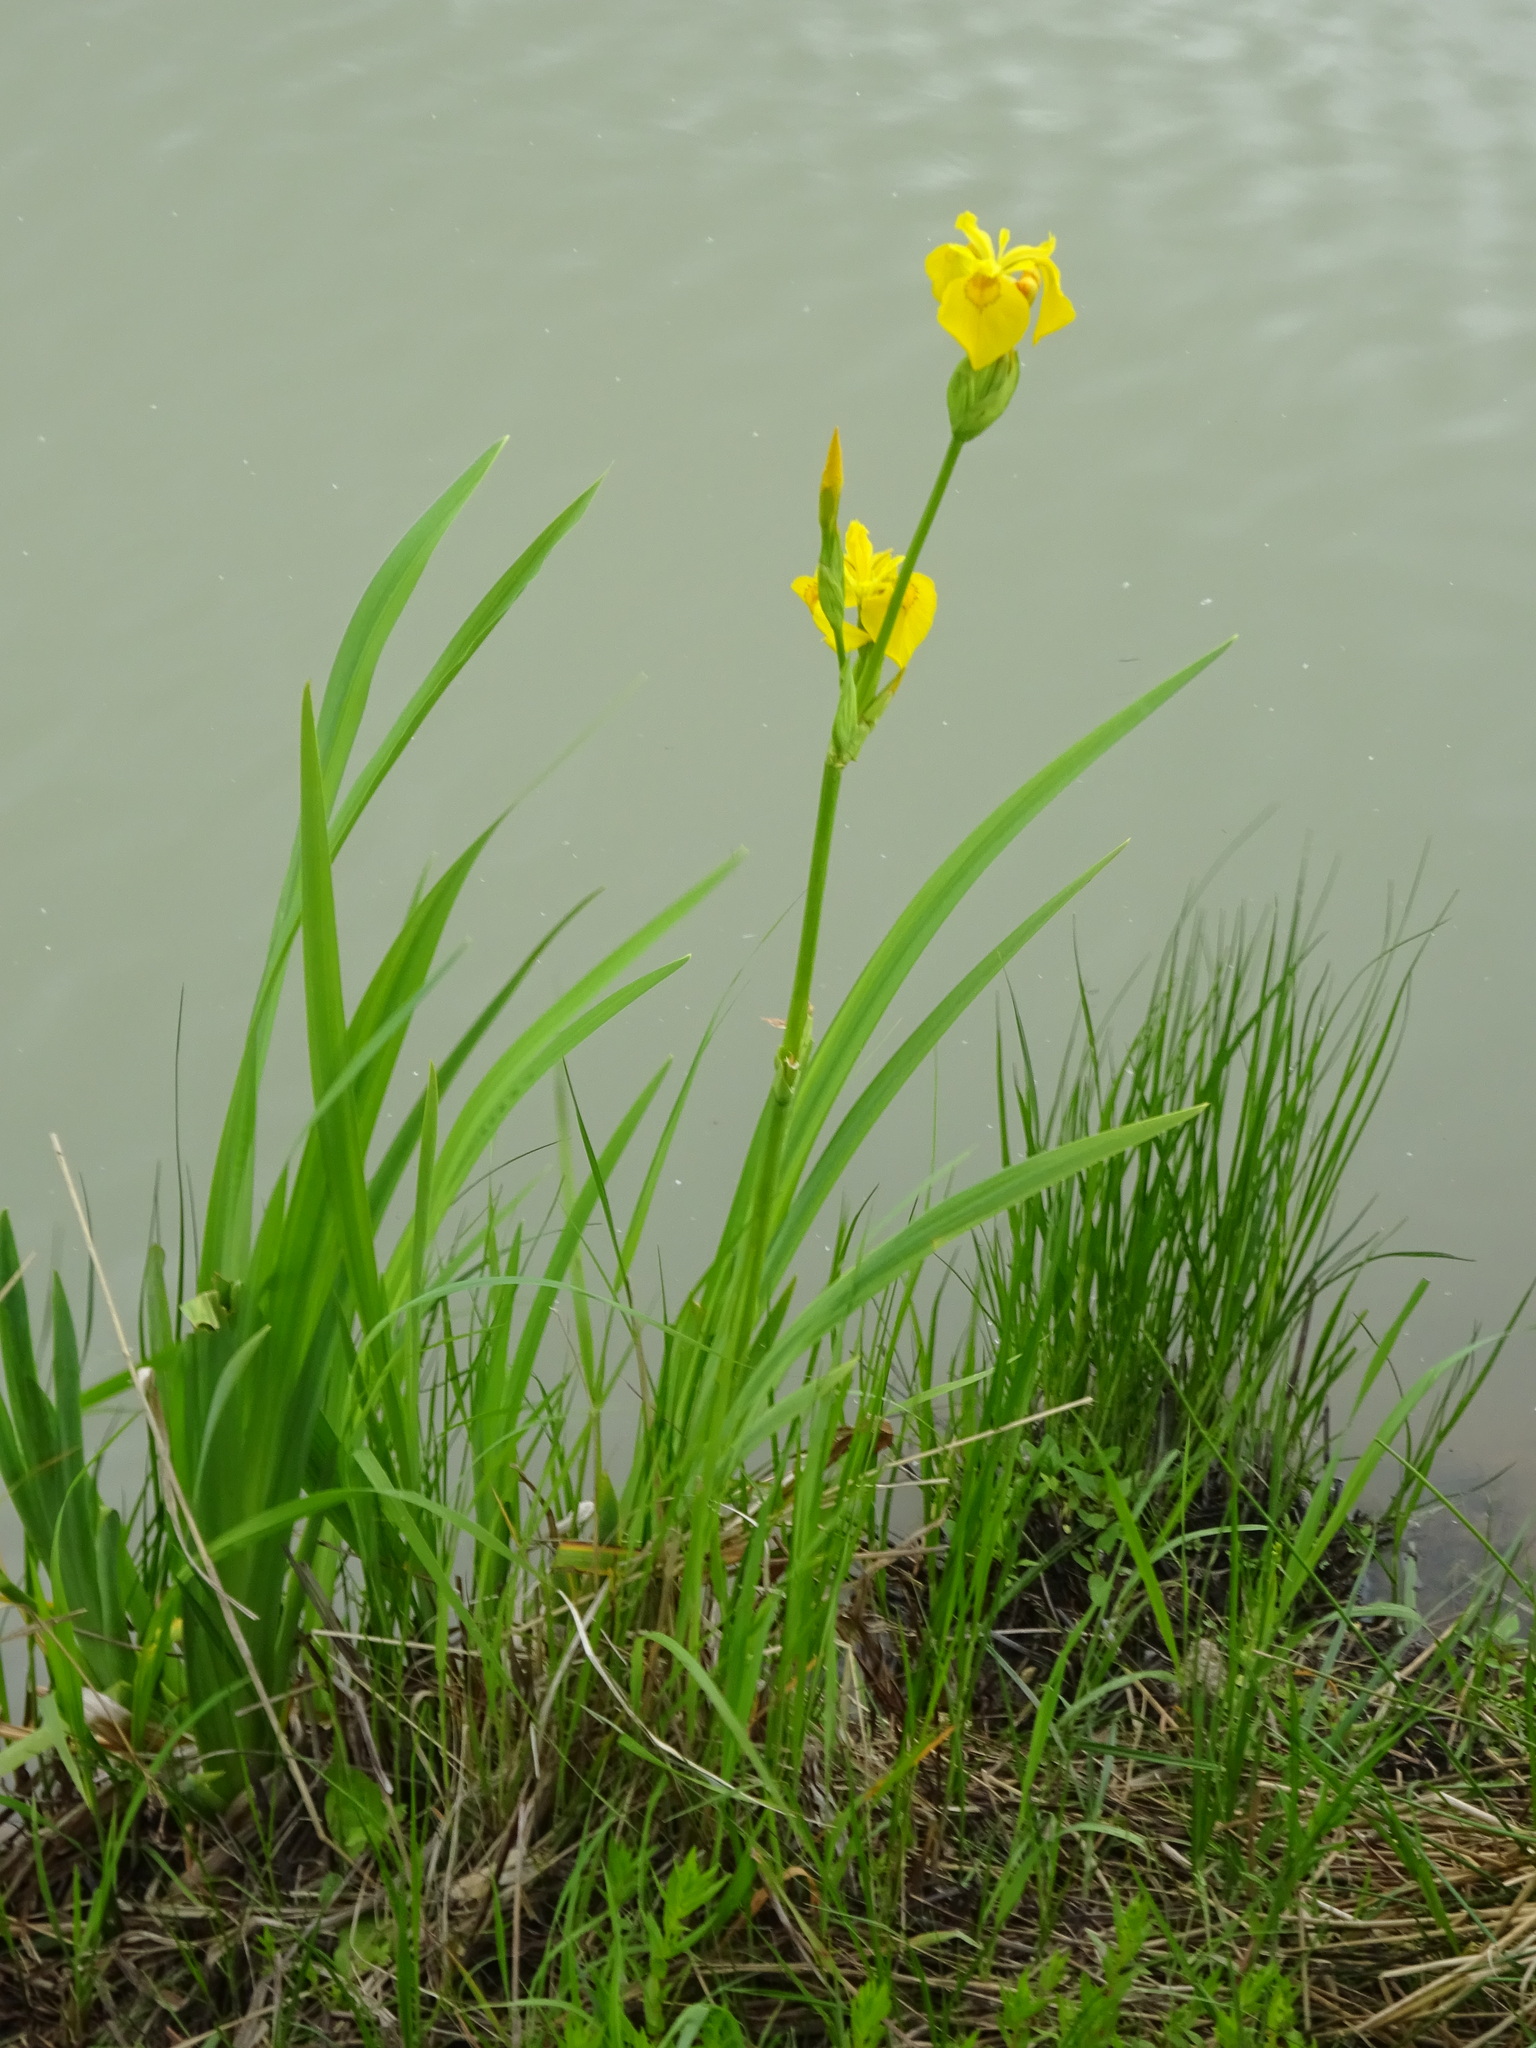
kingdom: Plantae
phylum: Tracheophyta
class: Liliopsida
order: Asparagales
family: Iridaceae
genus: Iris
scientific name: Iris pseudacorus
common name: Yellow flag
